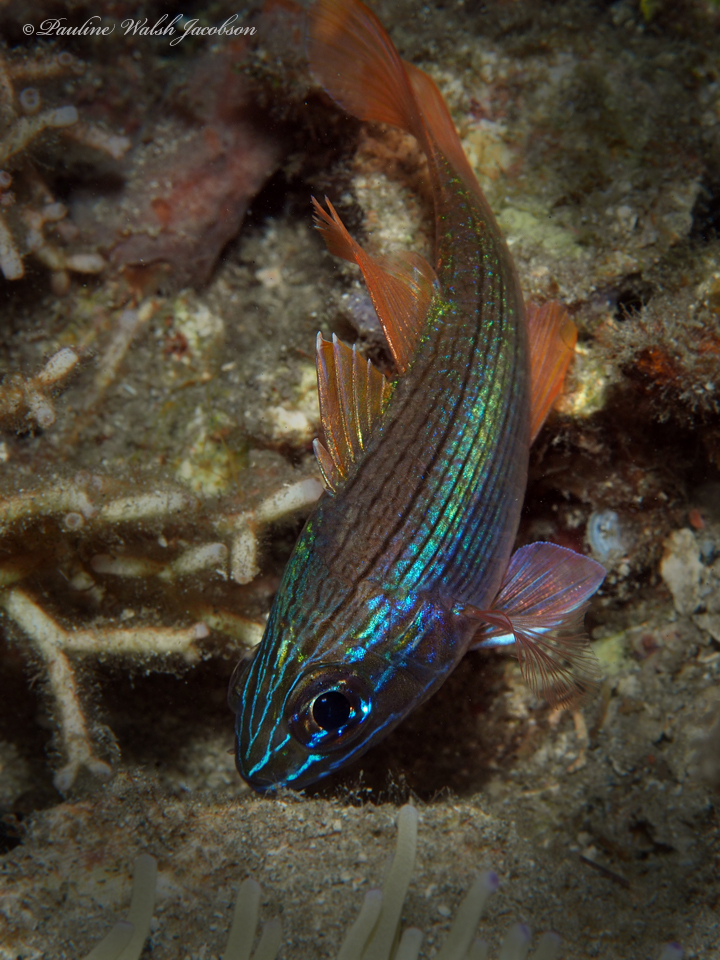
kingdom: Animalia
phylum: Chordata
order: Perciformes
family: Apogonidae
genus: Ostorhinchus
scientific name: Ostorhinchus multilineatus
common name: Many-lined cardinalfish
